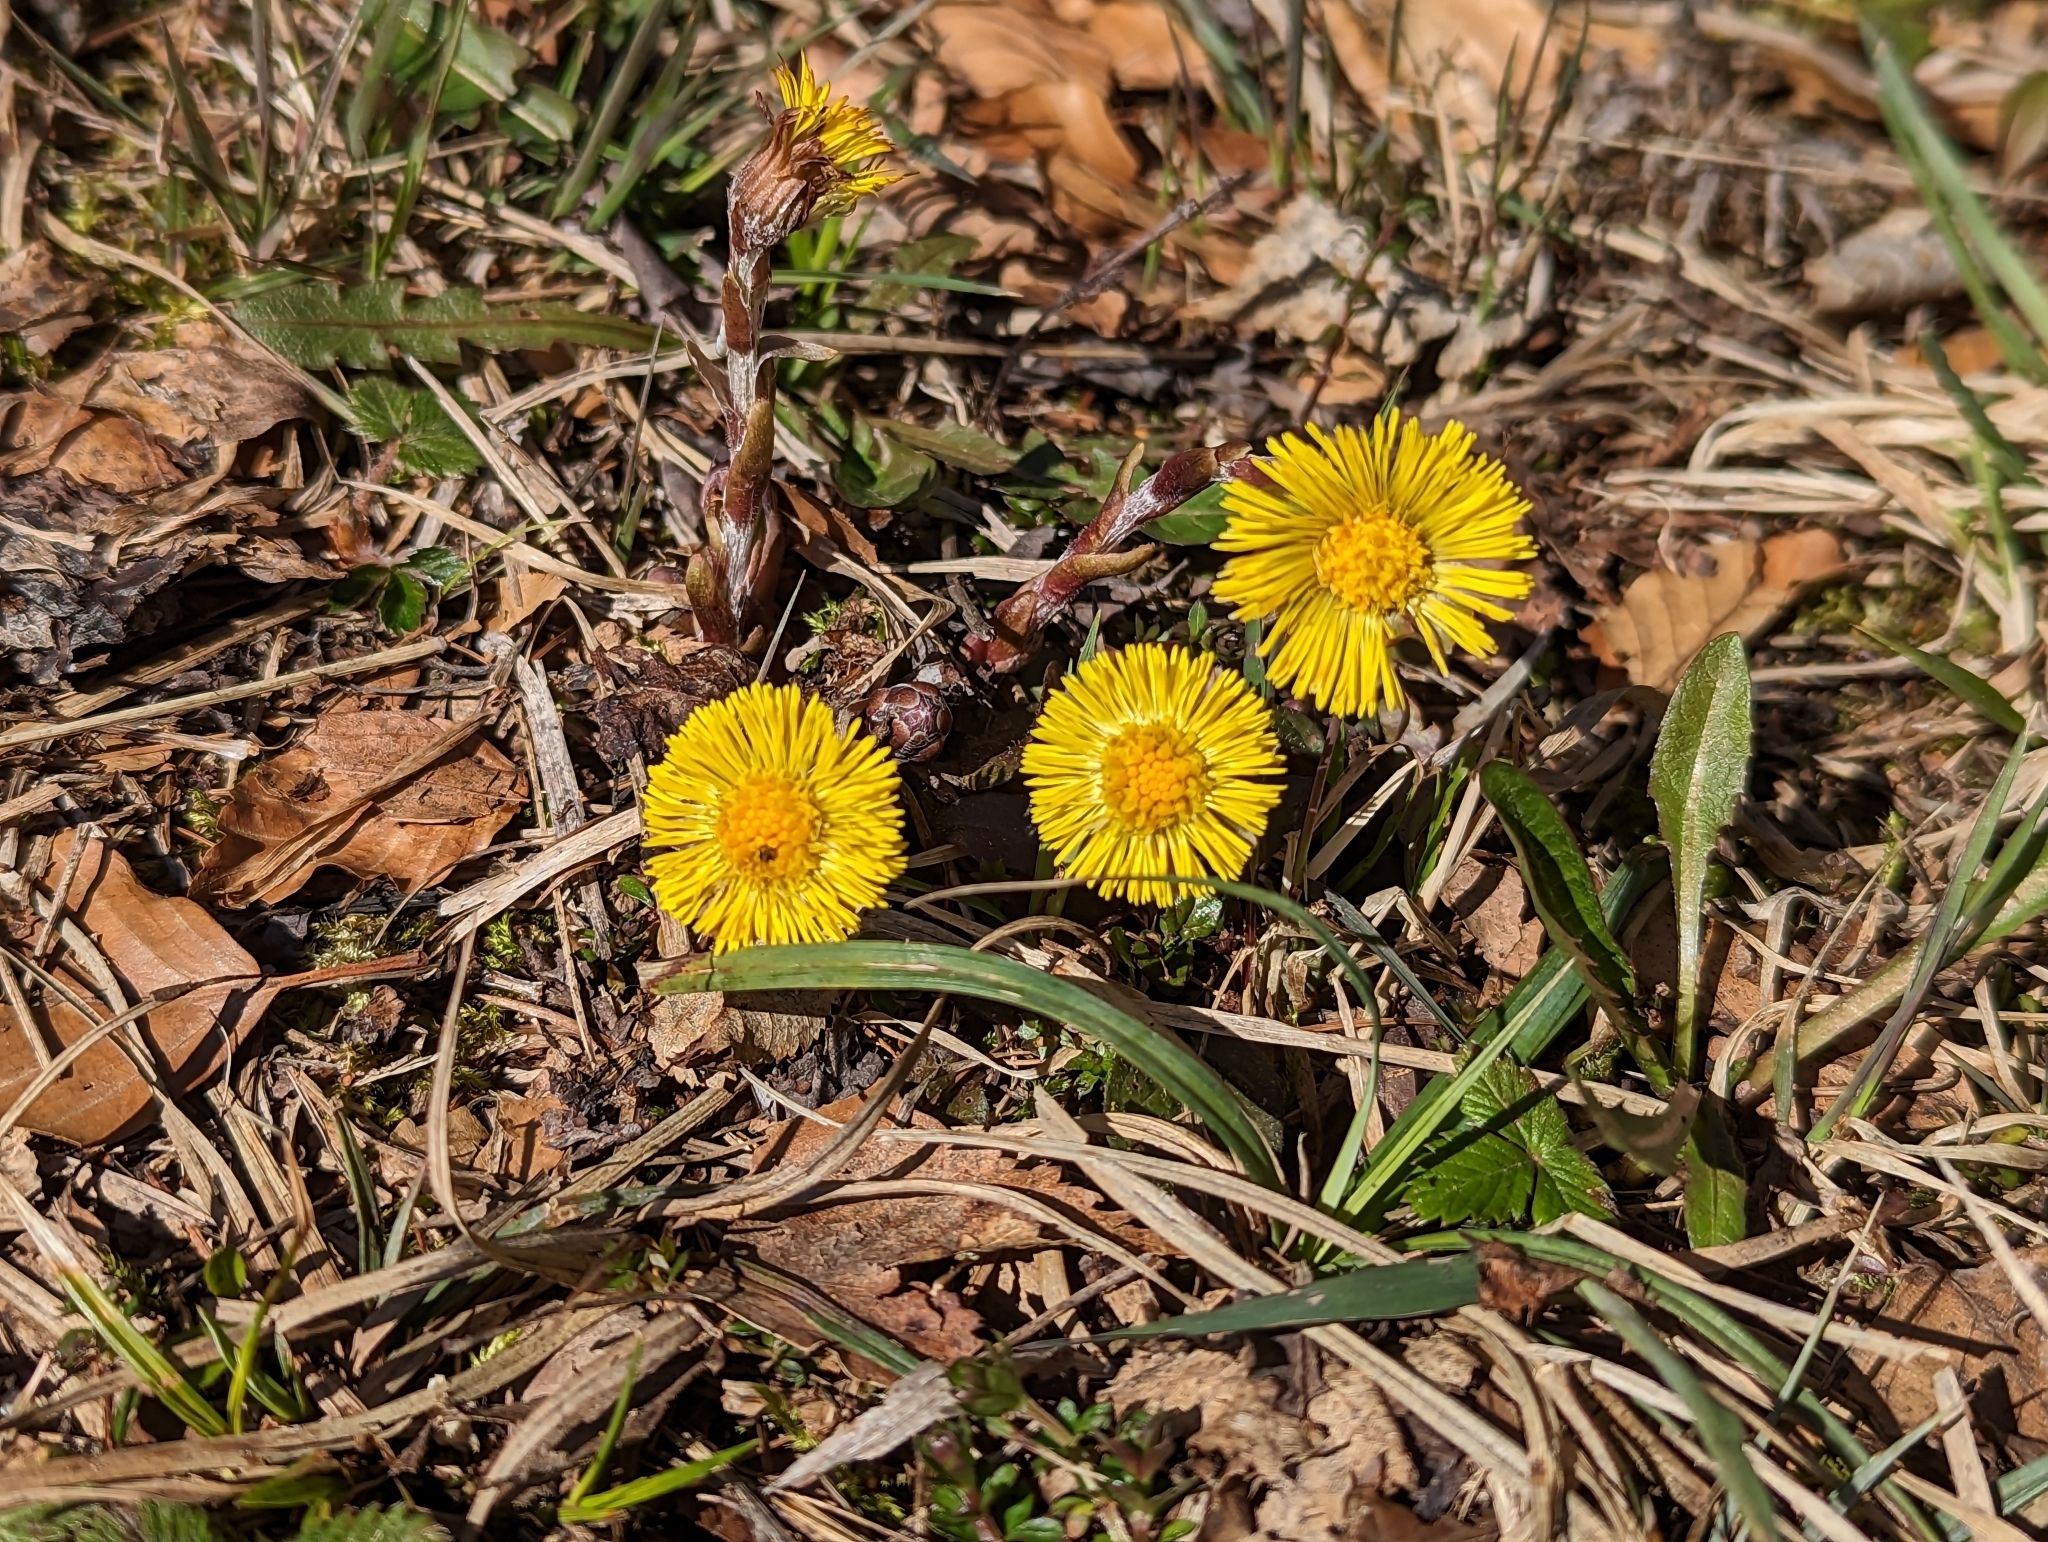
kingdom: Plantae
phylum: Tracheophyta
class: Magnoliopsida
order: Asterales
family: Asteraceae
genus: Tussilago
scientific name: Tussilago farfara
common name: Coltsfoot
